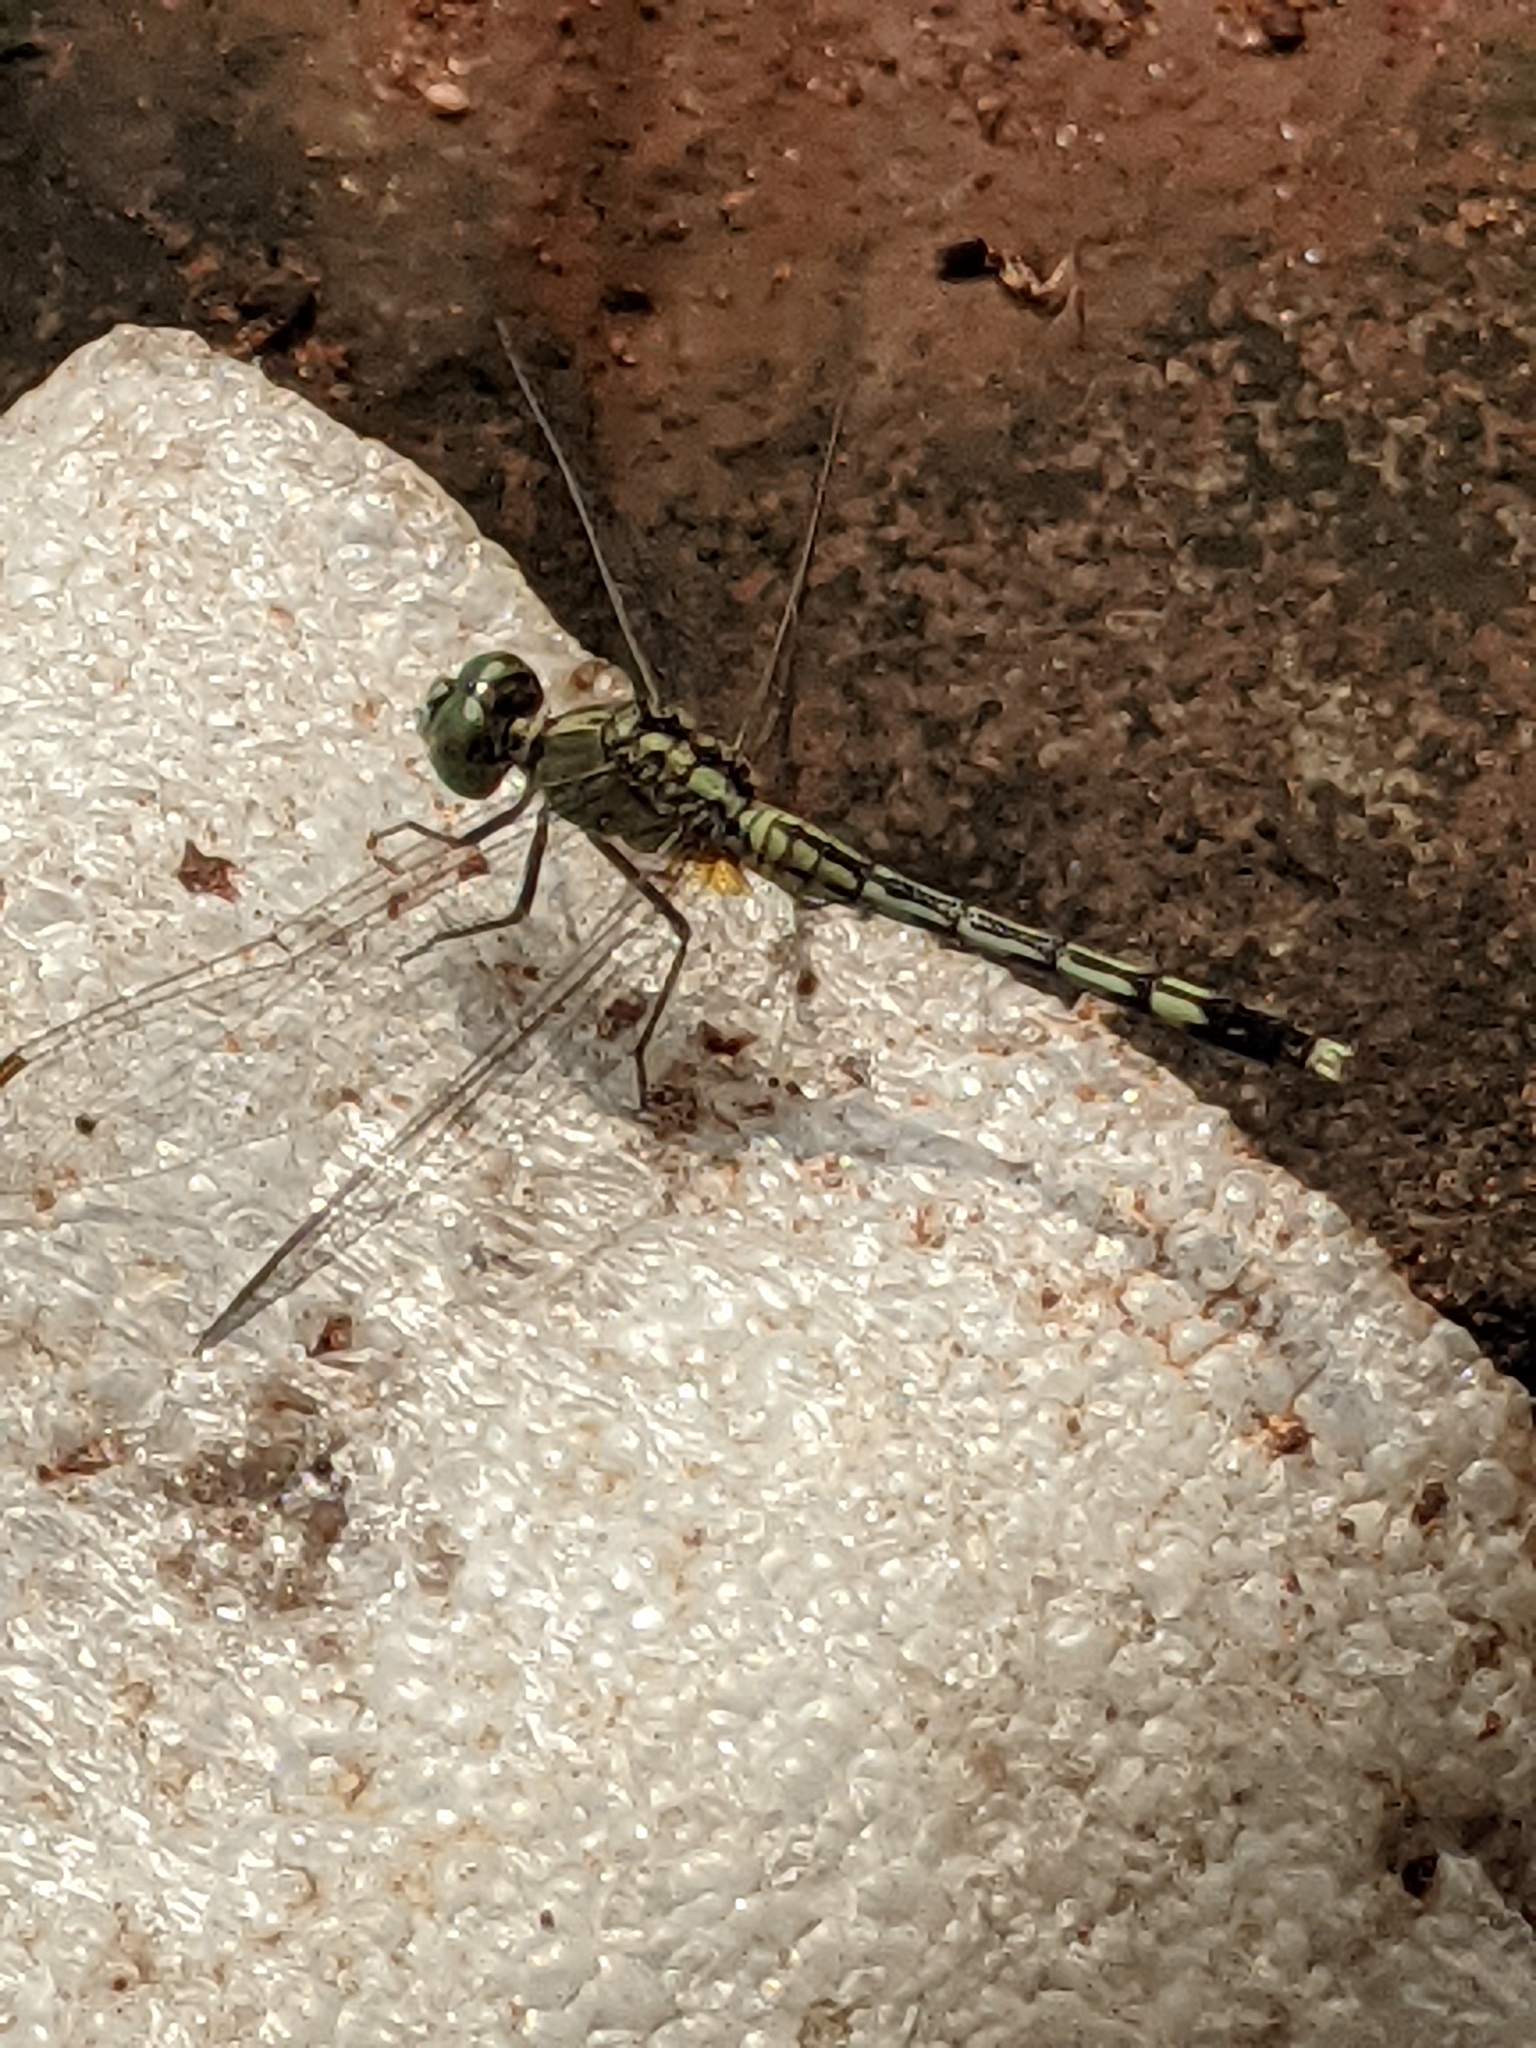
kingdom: Animalia
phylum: Arthropoda
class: Insecta
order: Odonata
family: Libellulidae
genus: Diplacodes
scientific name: Diplacodes trivialis
